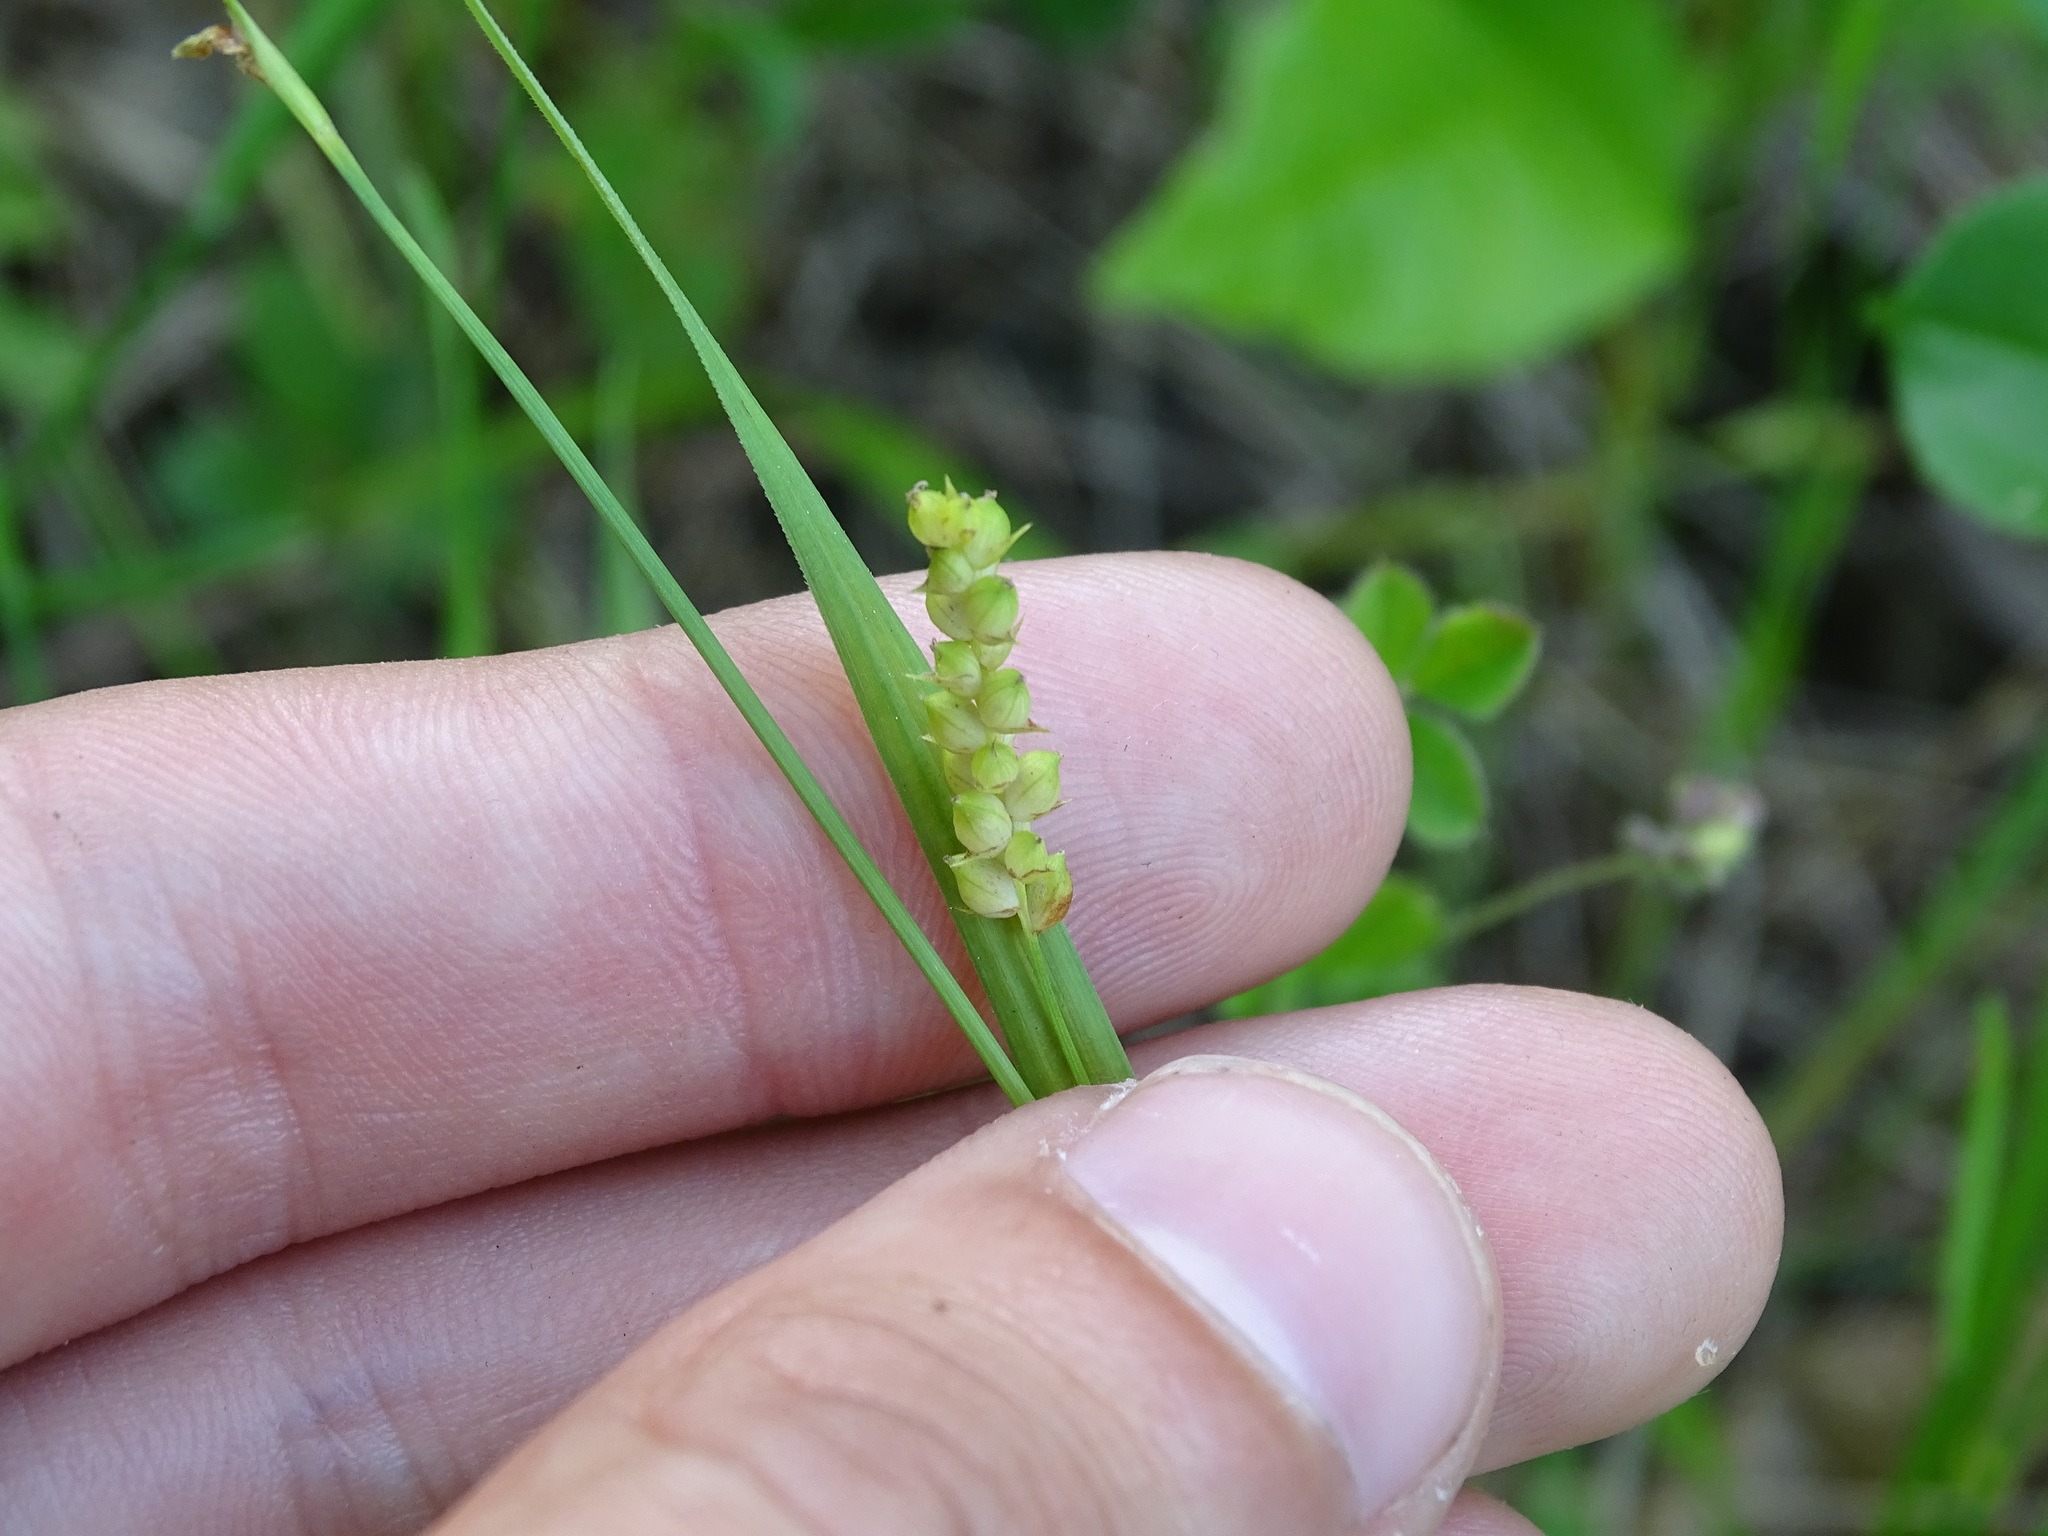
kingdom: Plantae
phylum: Tracheophyta
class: Liliopsida
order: Poales
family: Cyperaceae
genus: Carex
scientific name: Carex aurea
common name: Golden sedge
